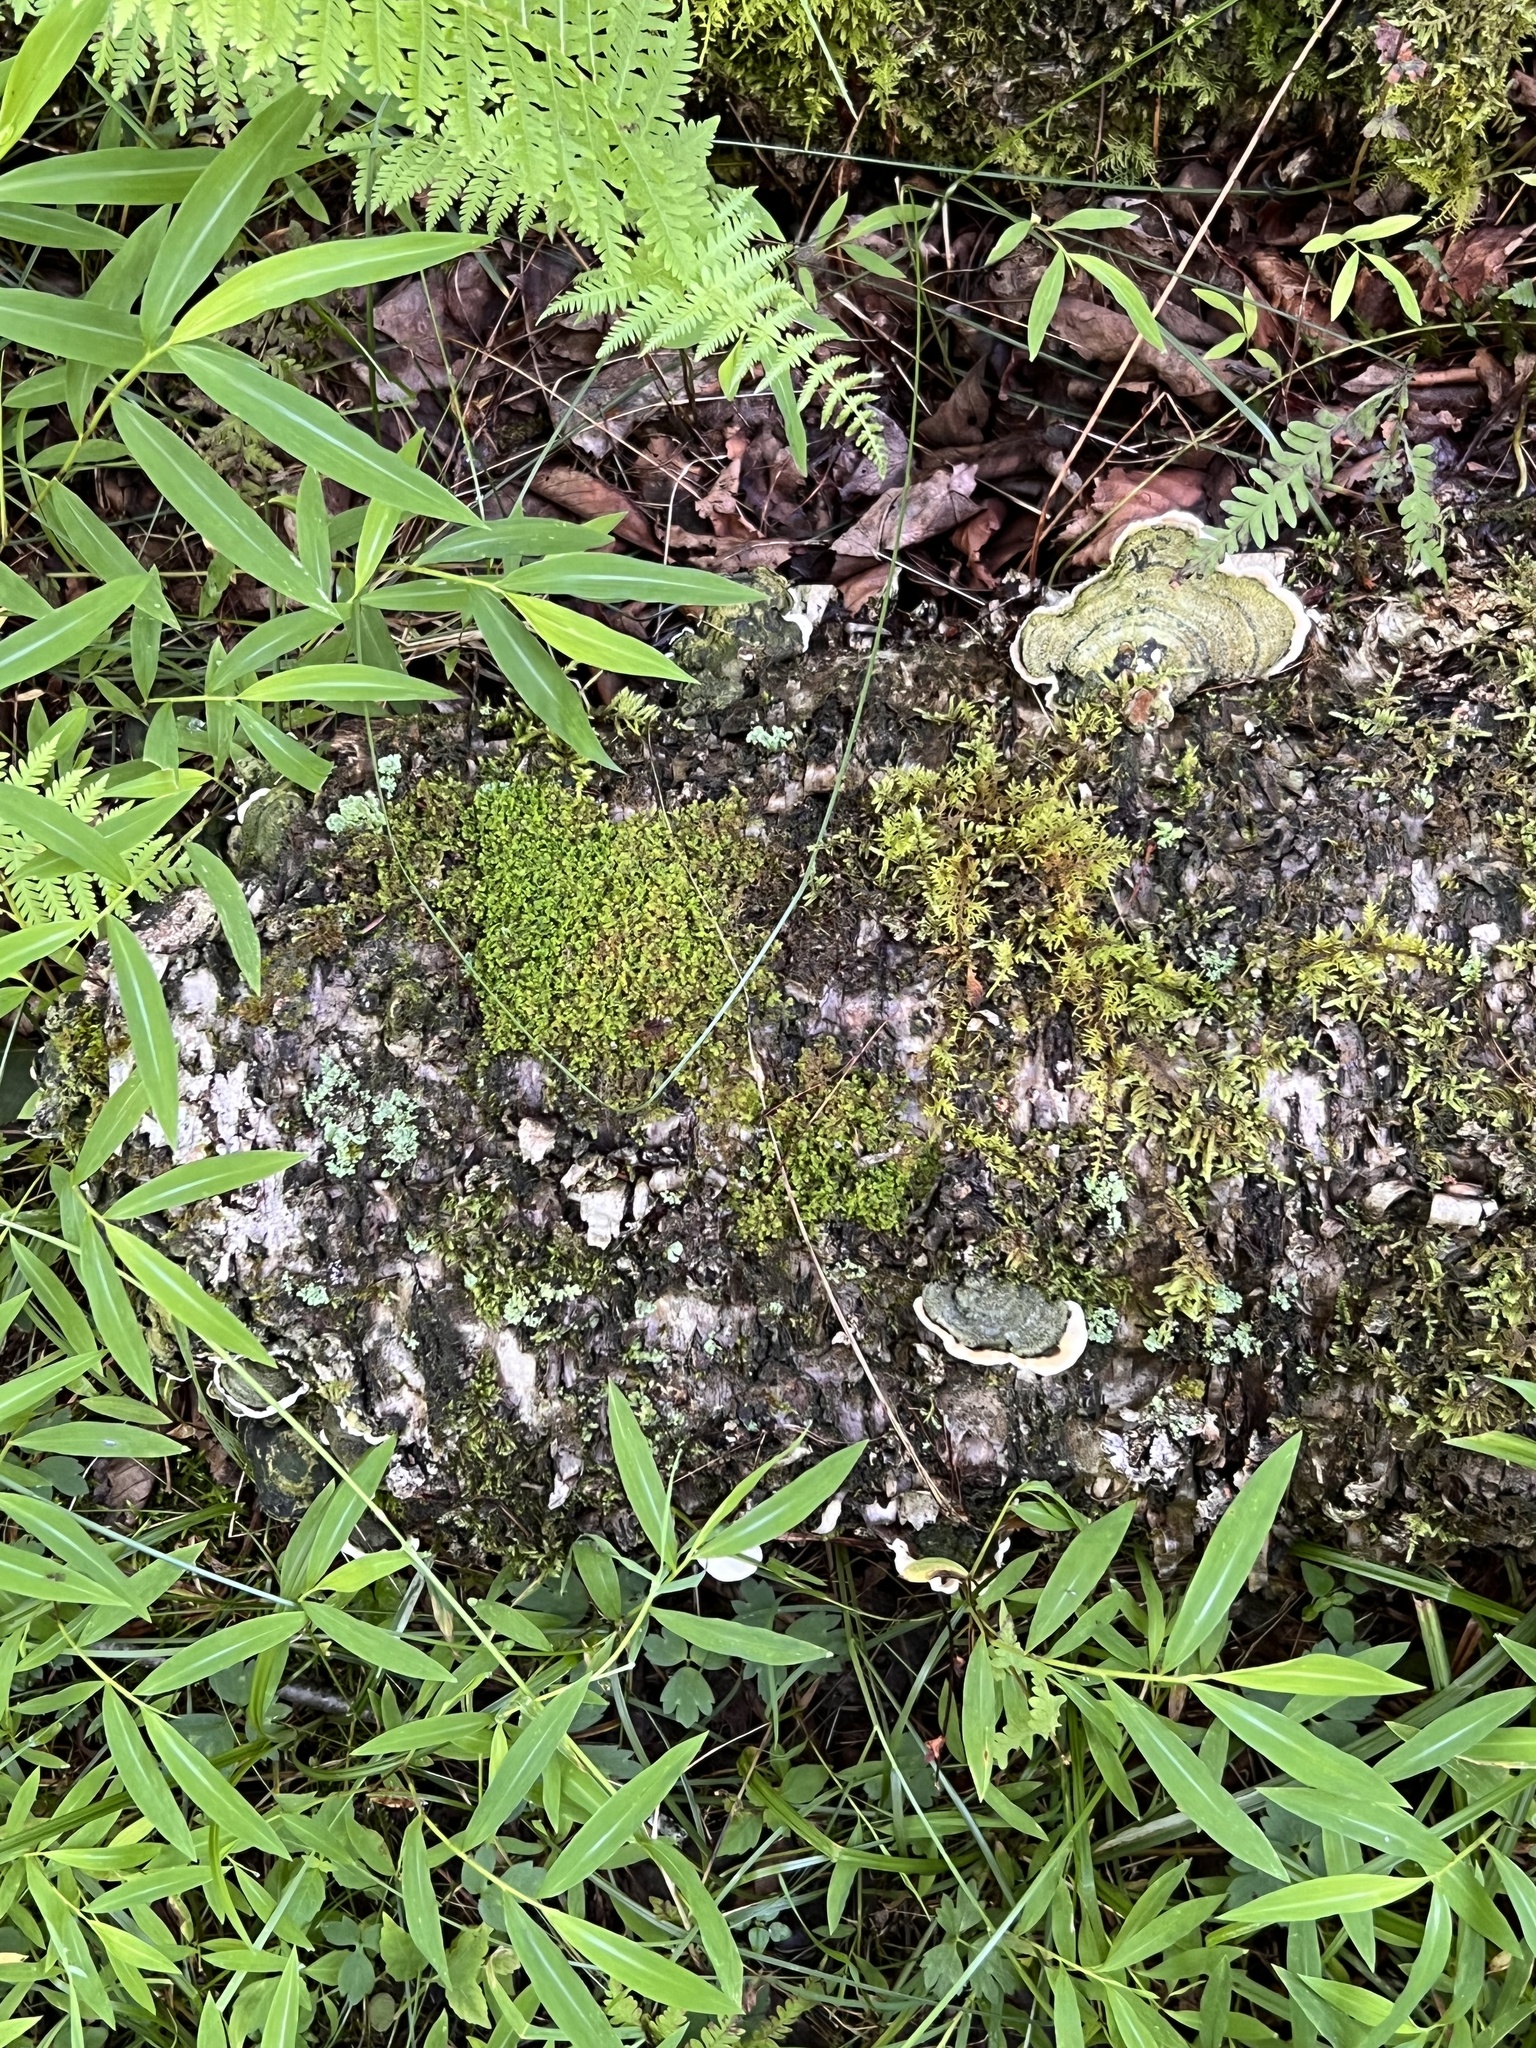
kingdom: Fungi
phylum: Basidiomycota
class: Agaricomycetes
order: Polyporales
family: Cerrenaceae
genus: Cerrena
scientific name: Cerrena unicolor
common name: Mossy maze polypore
